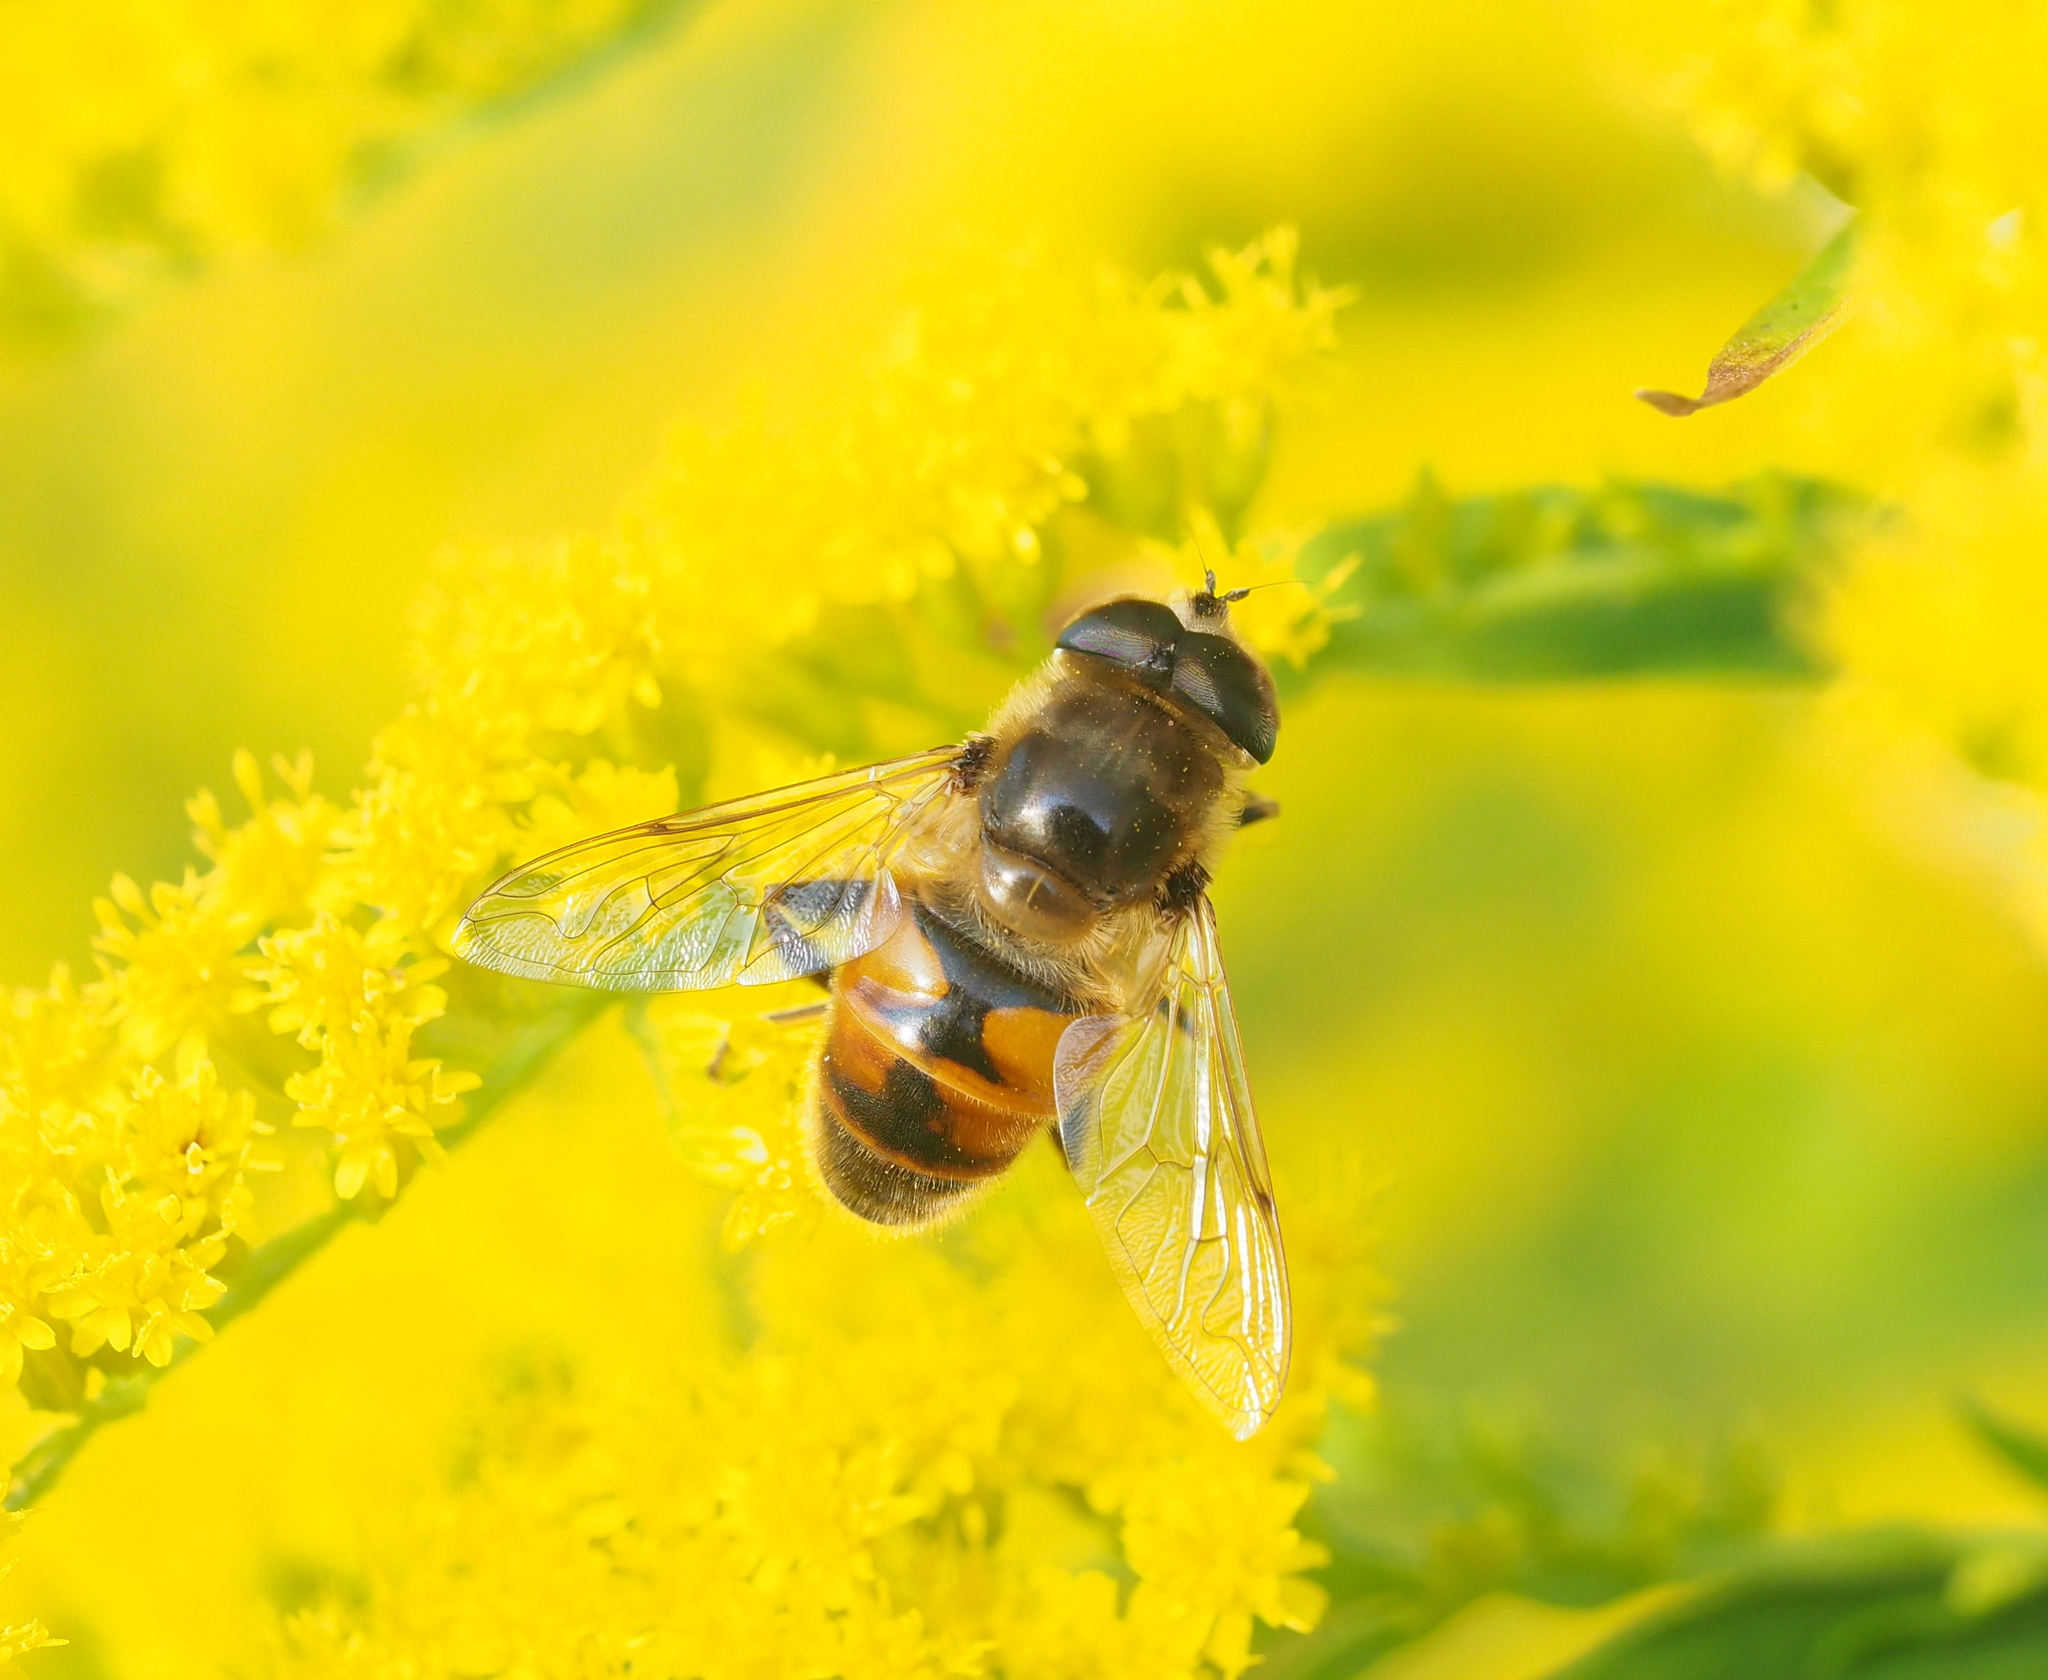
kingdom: Animalia
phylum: Arthropoda
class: Insecta
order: Diptera
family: Syrphidae
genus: Eristalis
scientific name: Eristalis tenax
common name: Drone fly
